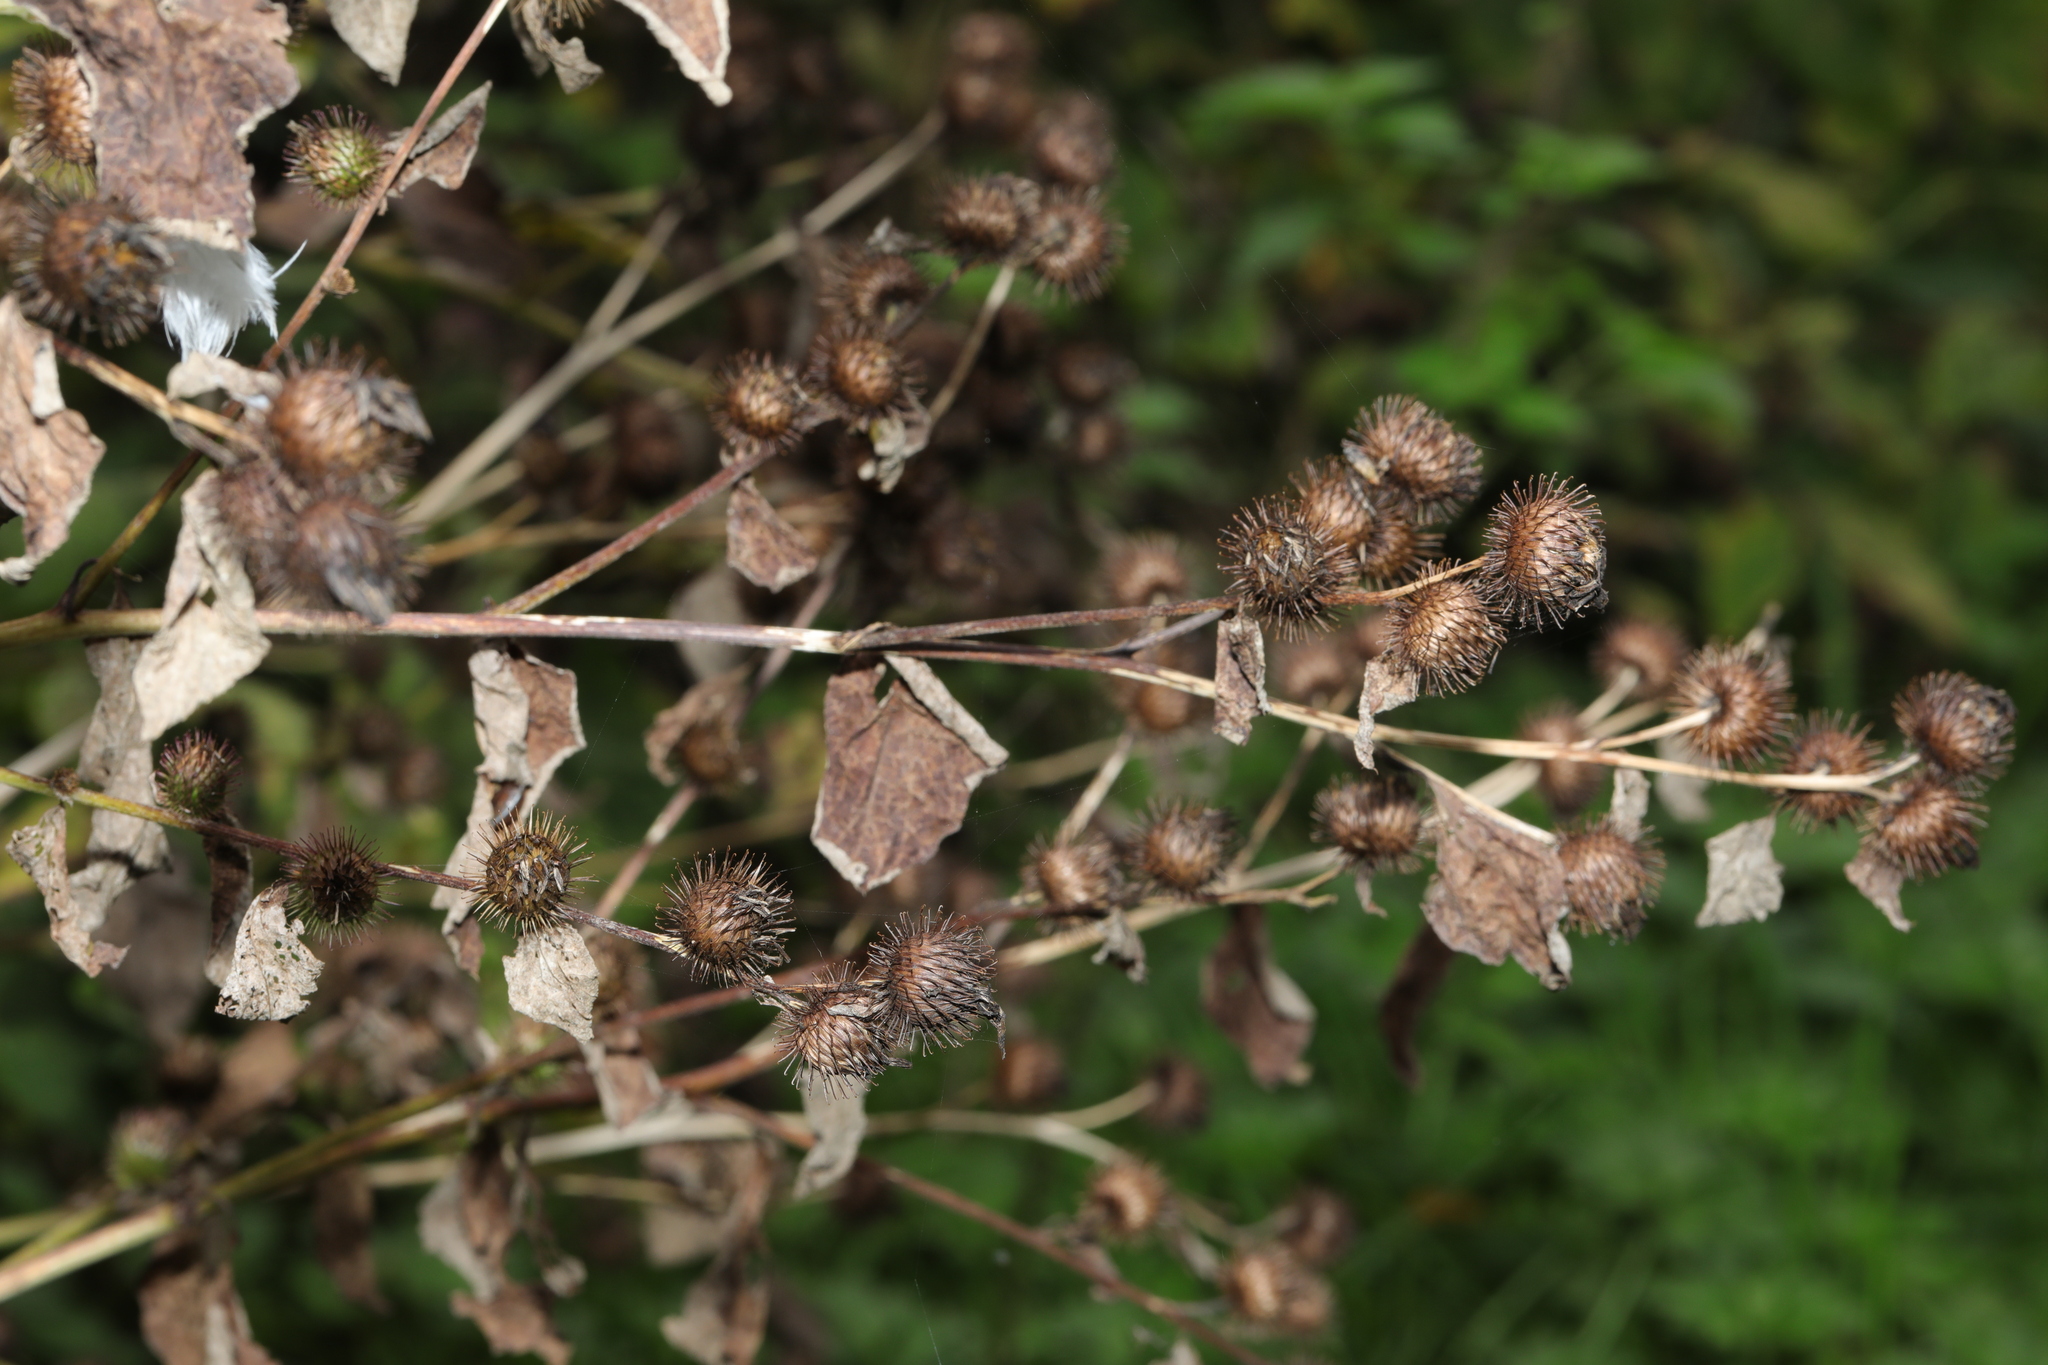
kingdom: Plantae
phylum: Tracheophyta
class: Magnoliopsida
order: Asterales
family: Asteraceae
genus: Arctium
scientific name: Arctium minus
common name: Lesser burdock
